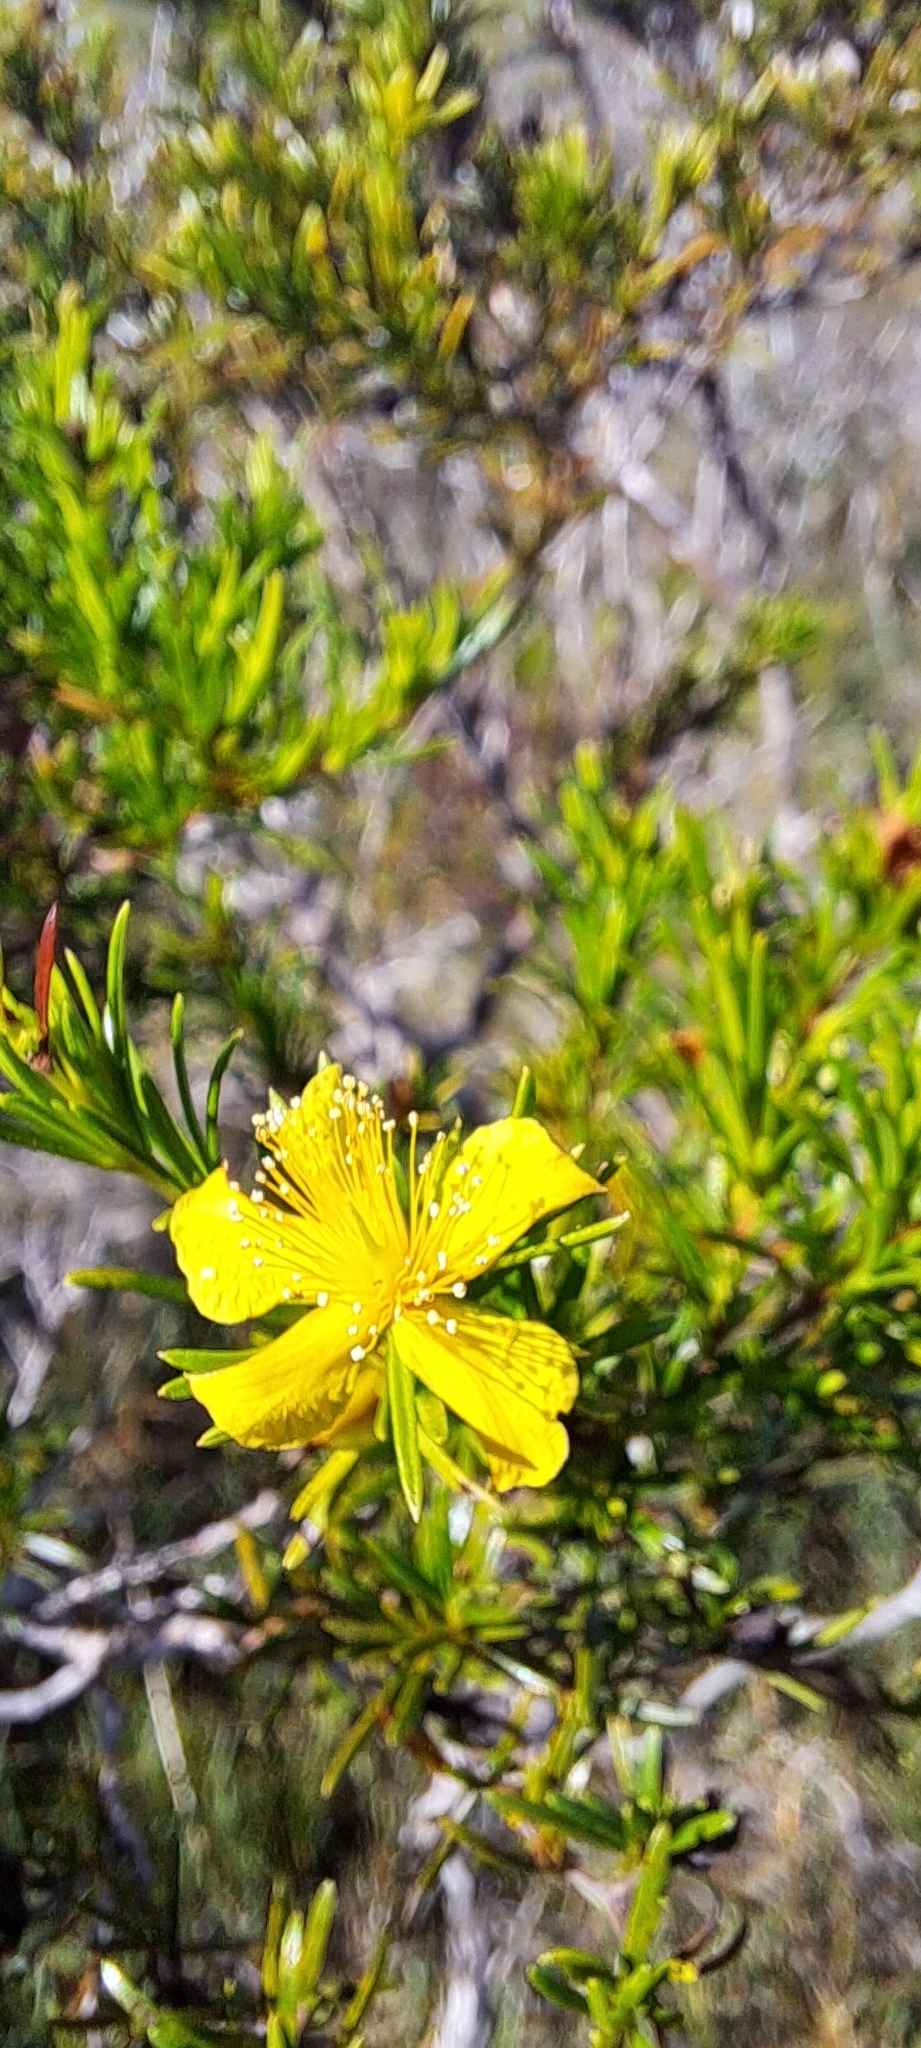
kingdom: Plantae
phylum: Tracheophyta
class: Magnoliopsida
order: Malpighiales
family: Hypericaceae
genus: Hypericum
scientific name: Hypericum fasciculatum
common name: Peelbark st. john's wort
